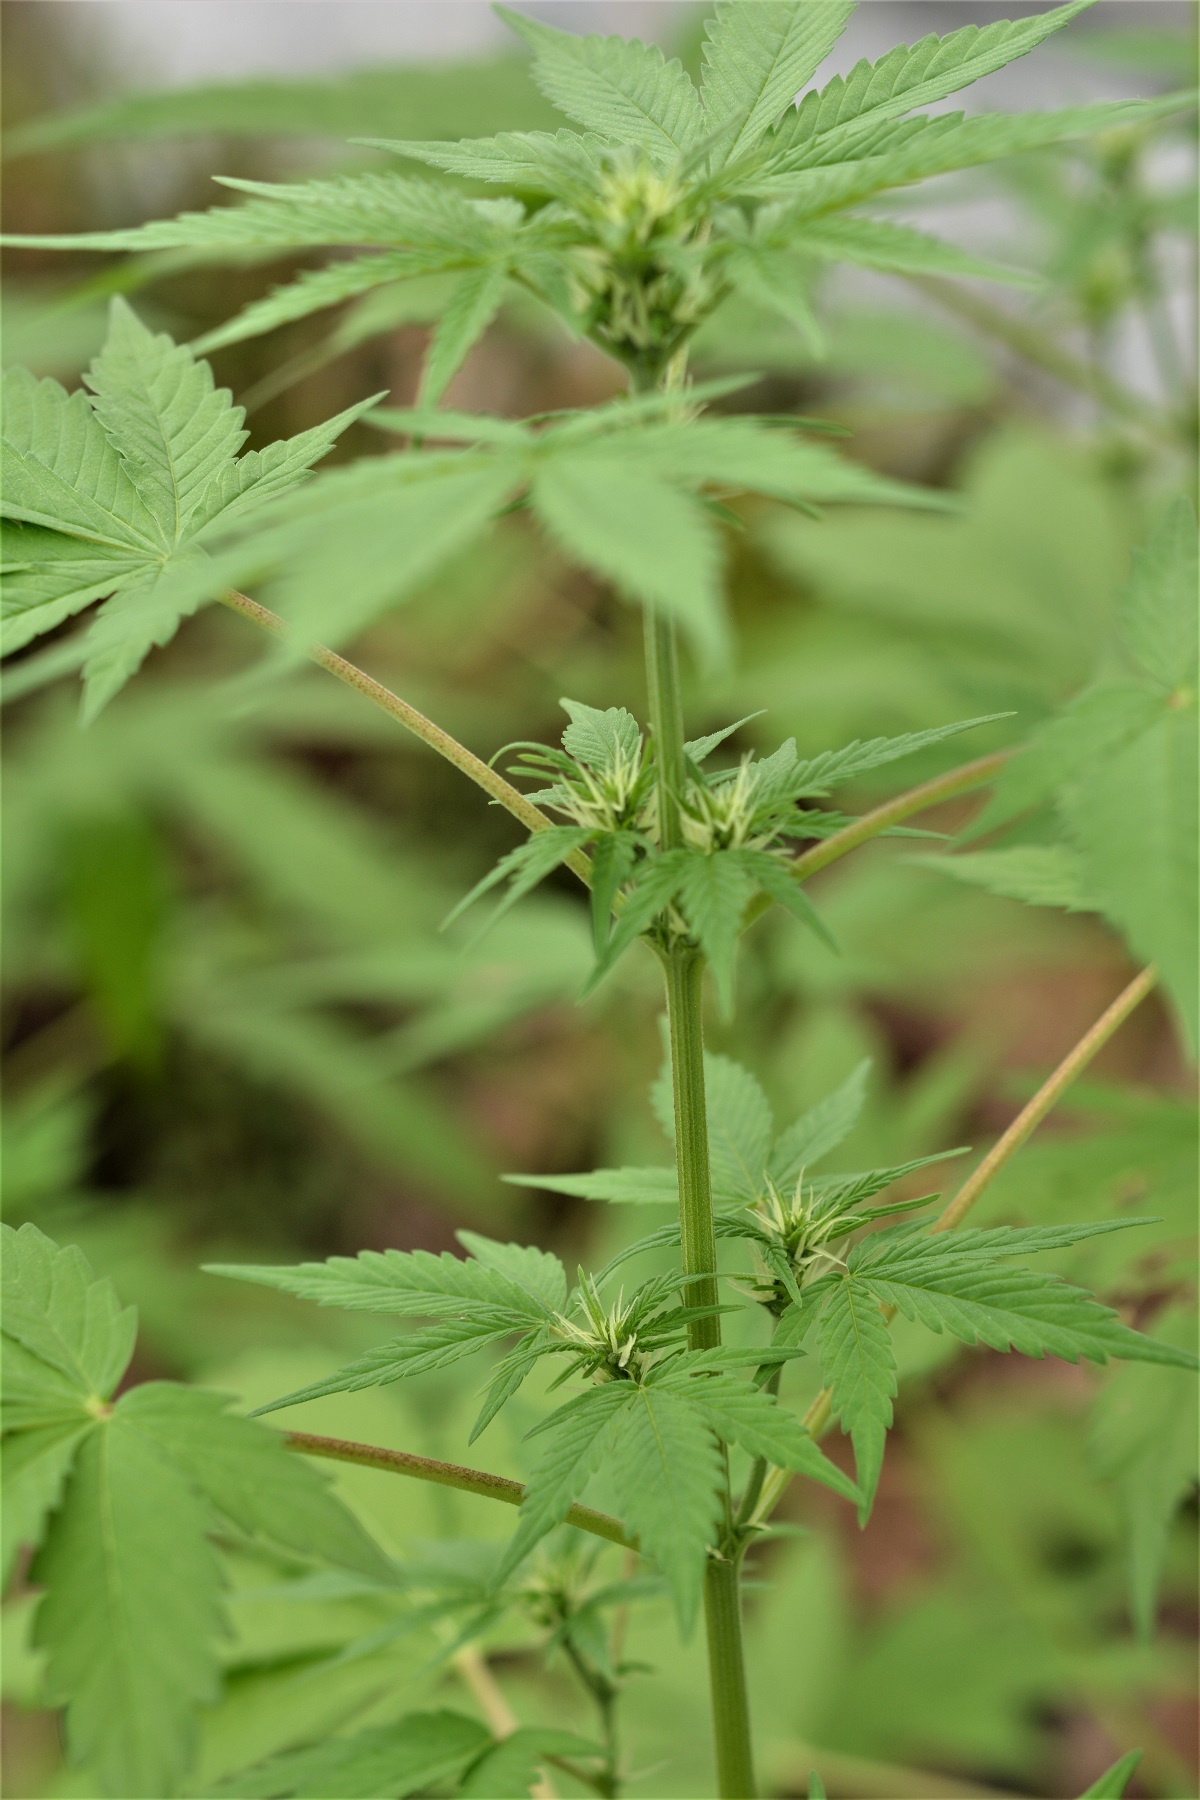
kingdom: Plantae
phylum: Tracheophyta
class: Magnoliopsida
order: Rosales
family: Cannabaceae
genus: Cannabis
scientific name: Cannabis sativa
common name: Hemp
